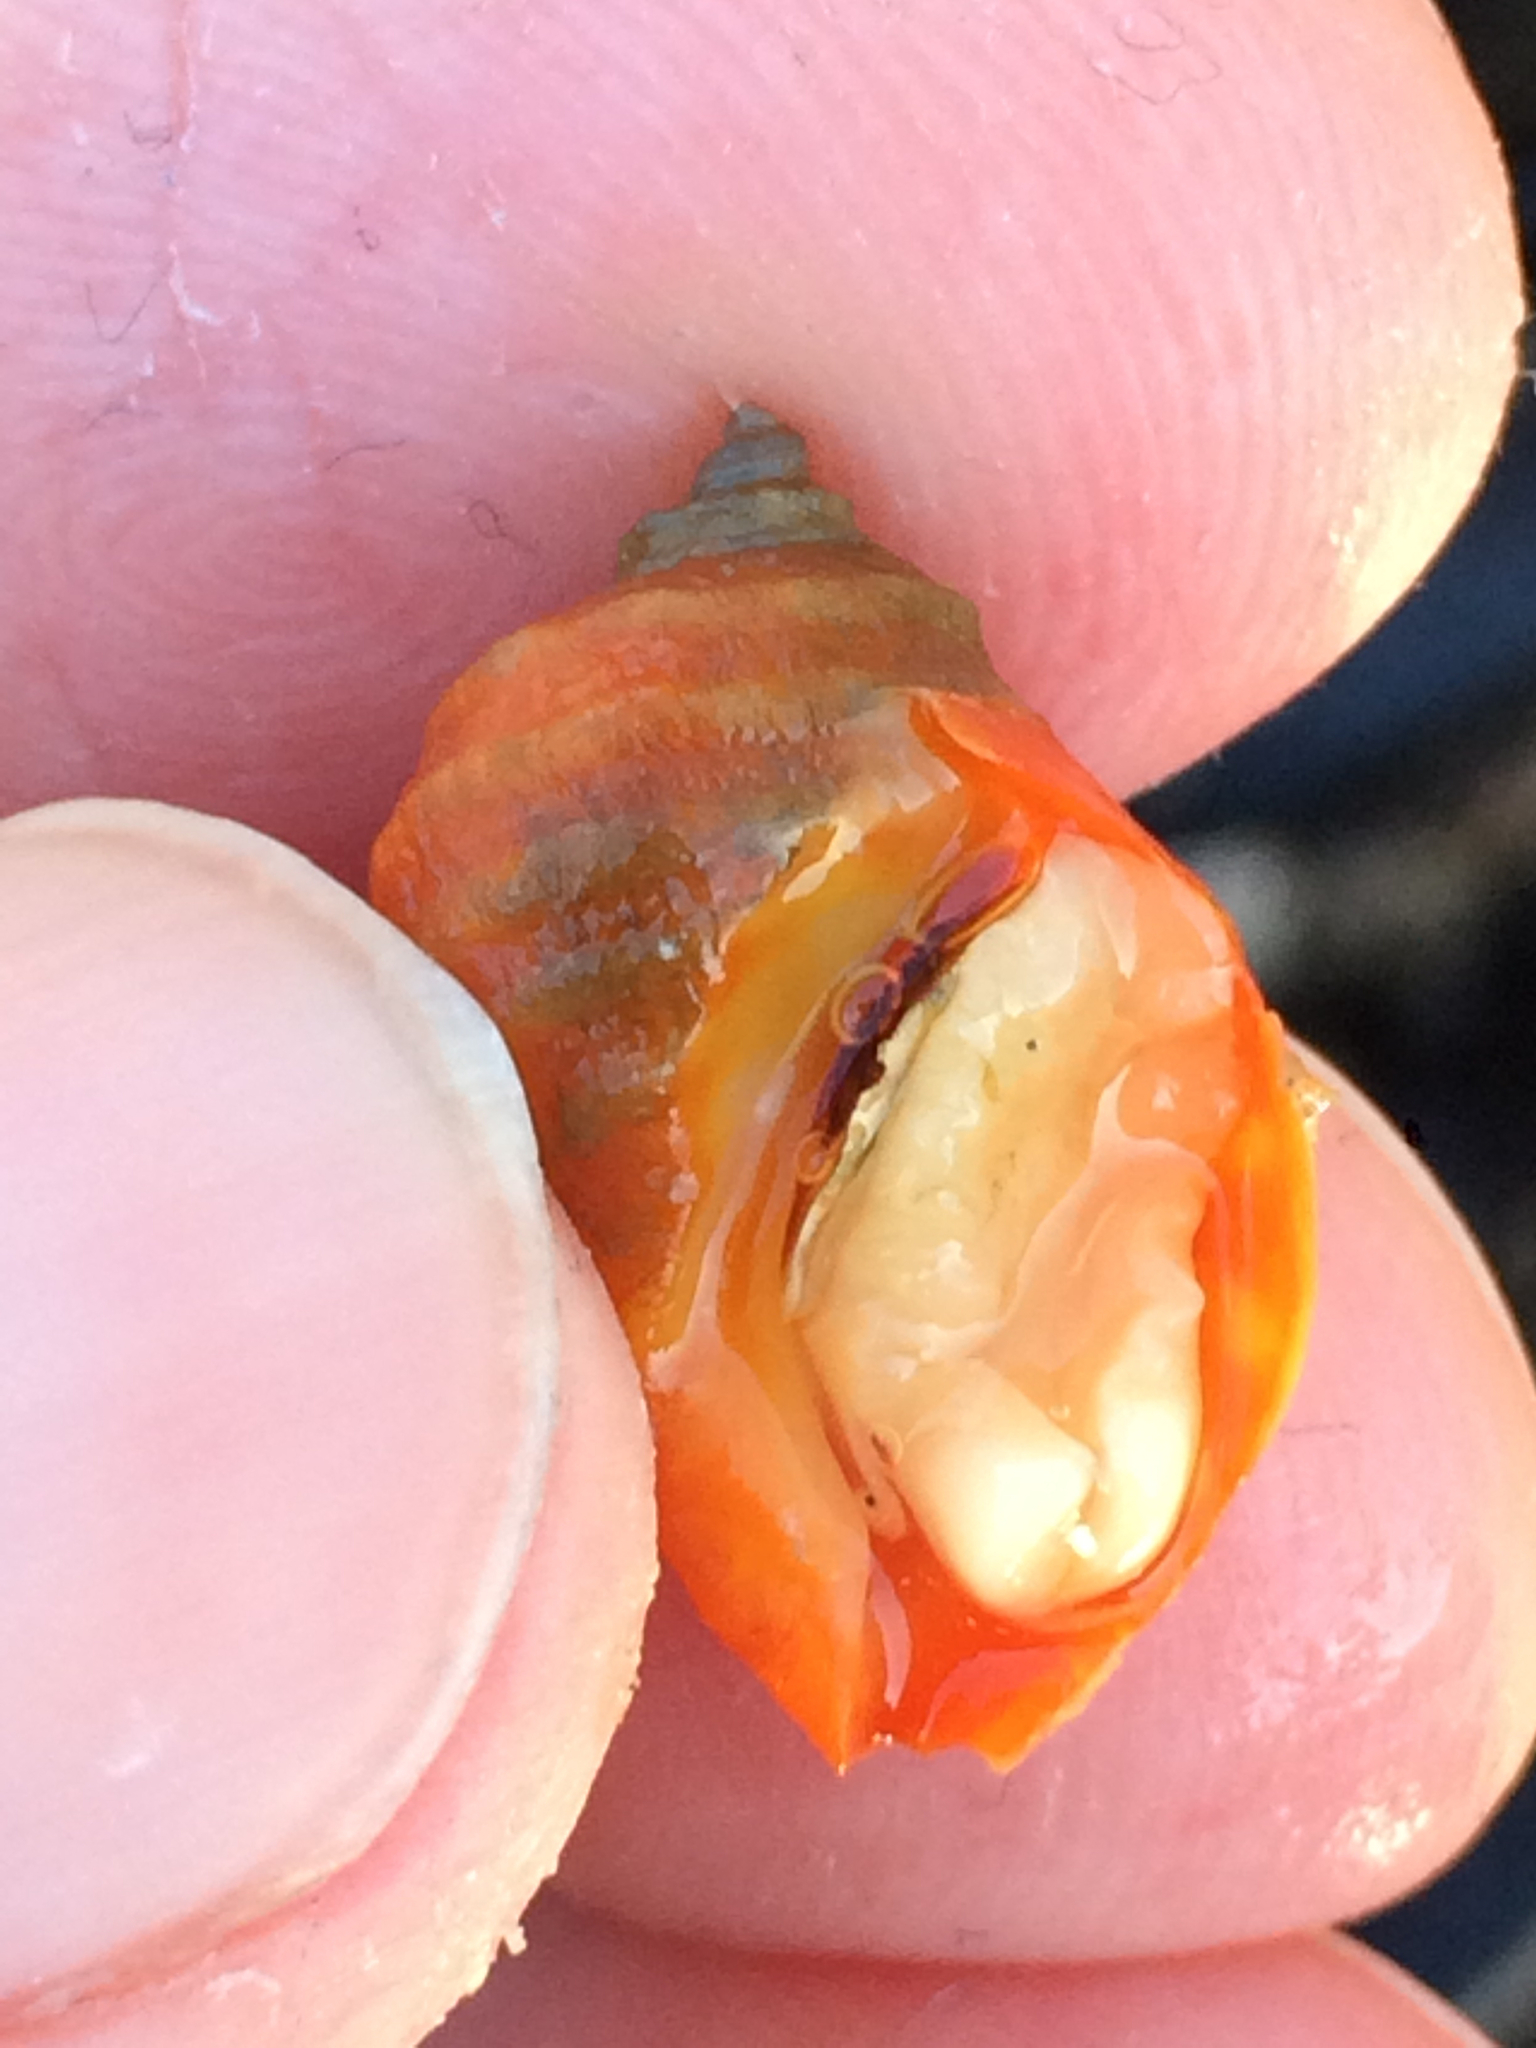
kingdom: Animalia
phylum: Mollusca
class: Gastropoda
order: Neogastropoda
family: Muricidae
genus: Nucella
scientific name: Nucella ostrina
